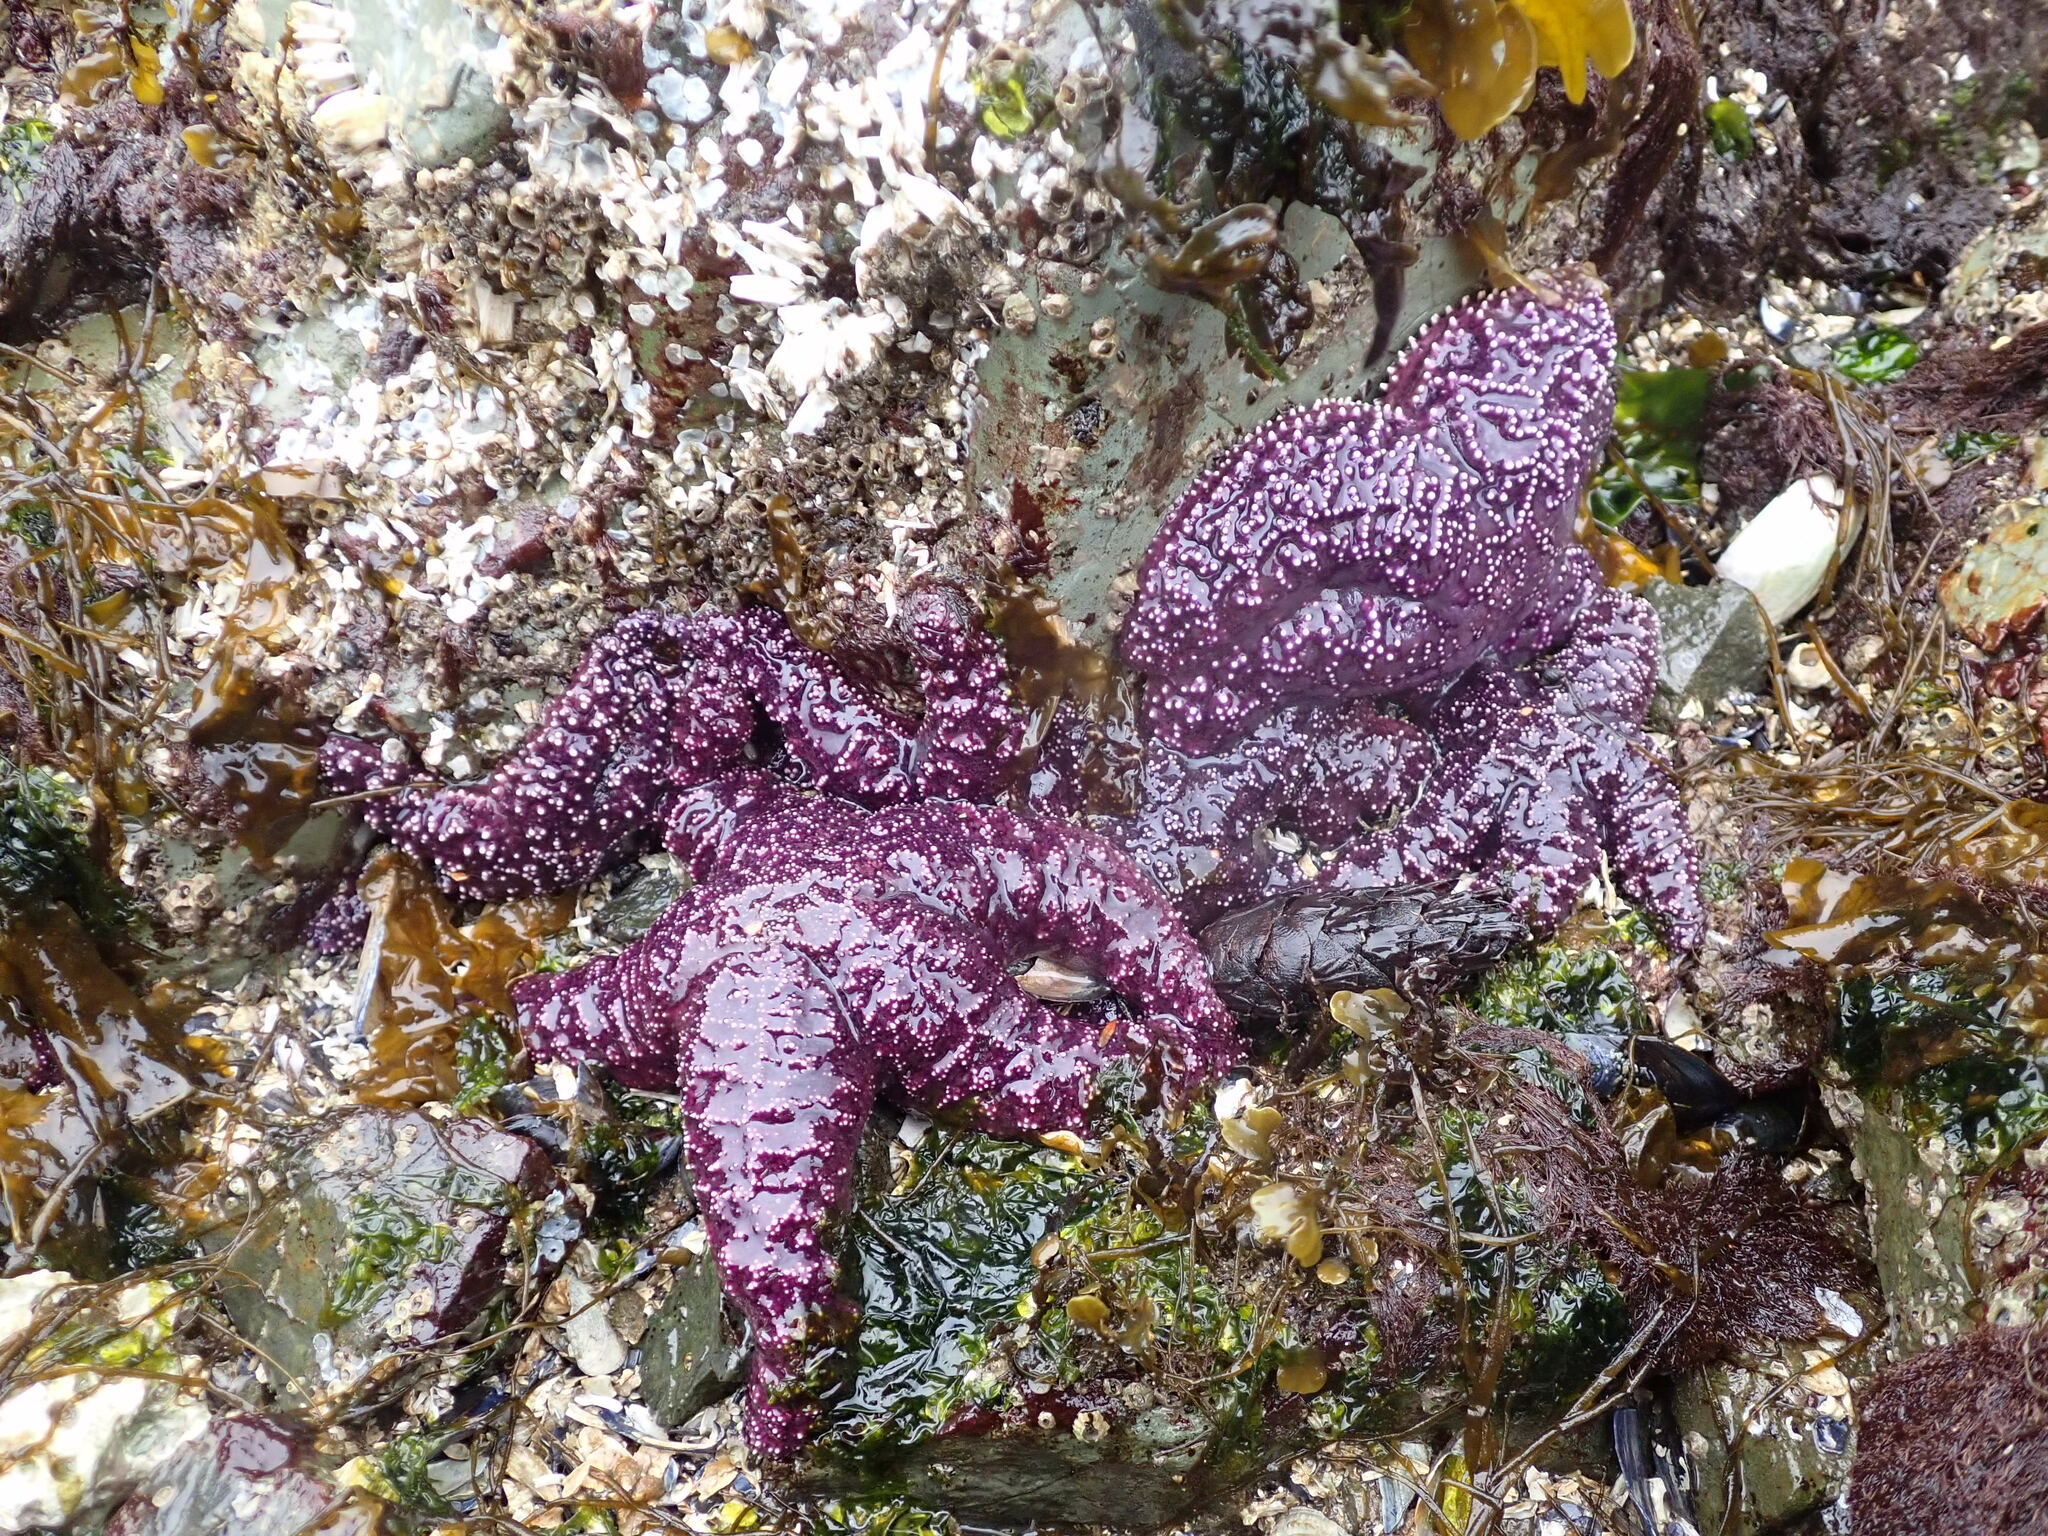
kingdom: Animalia
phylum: Echinodermata
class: Asteroidea
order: Forcipulatida
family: Asteriidae
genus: Pisaster
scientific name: Pisaster ochraceus
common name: Ochre stars
